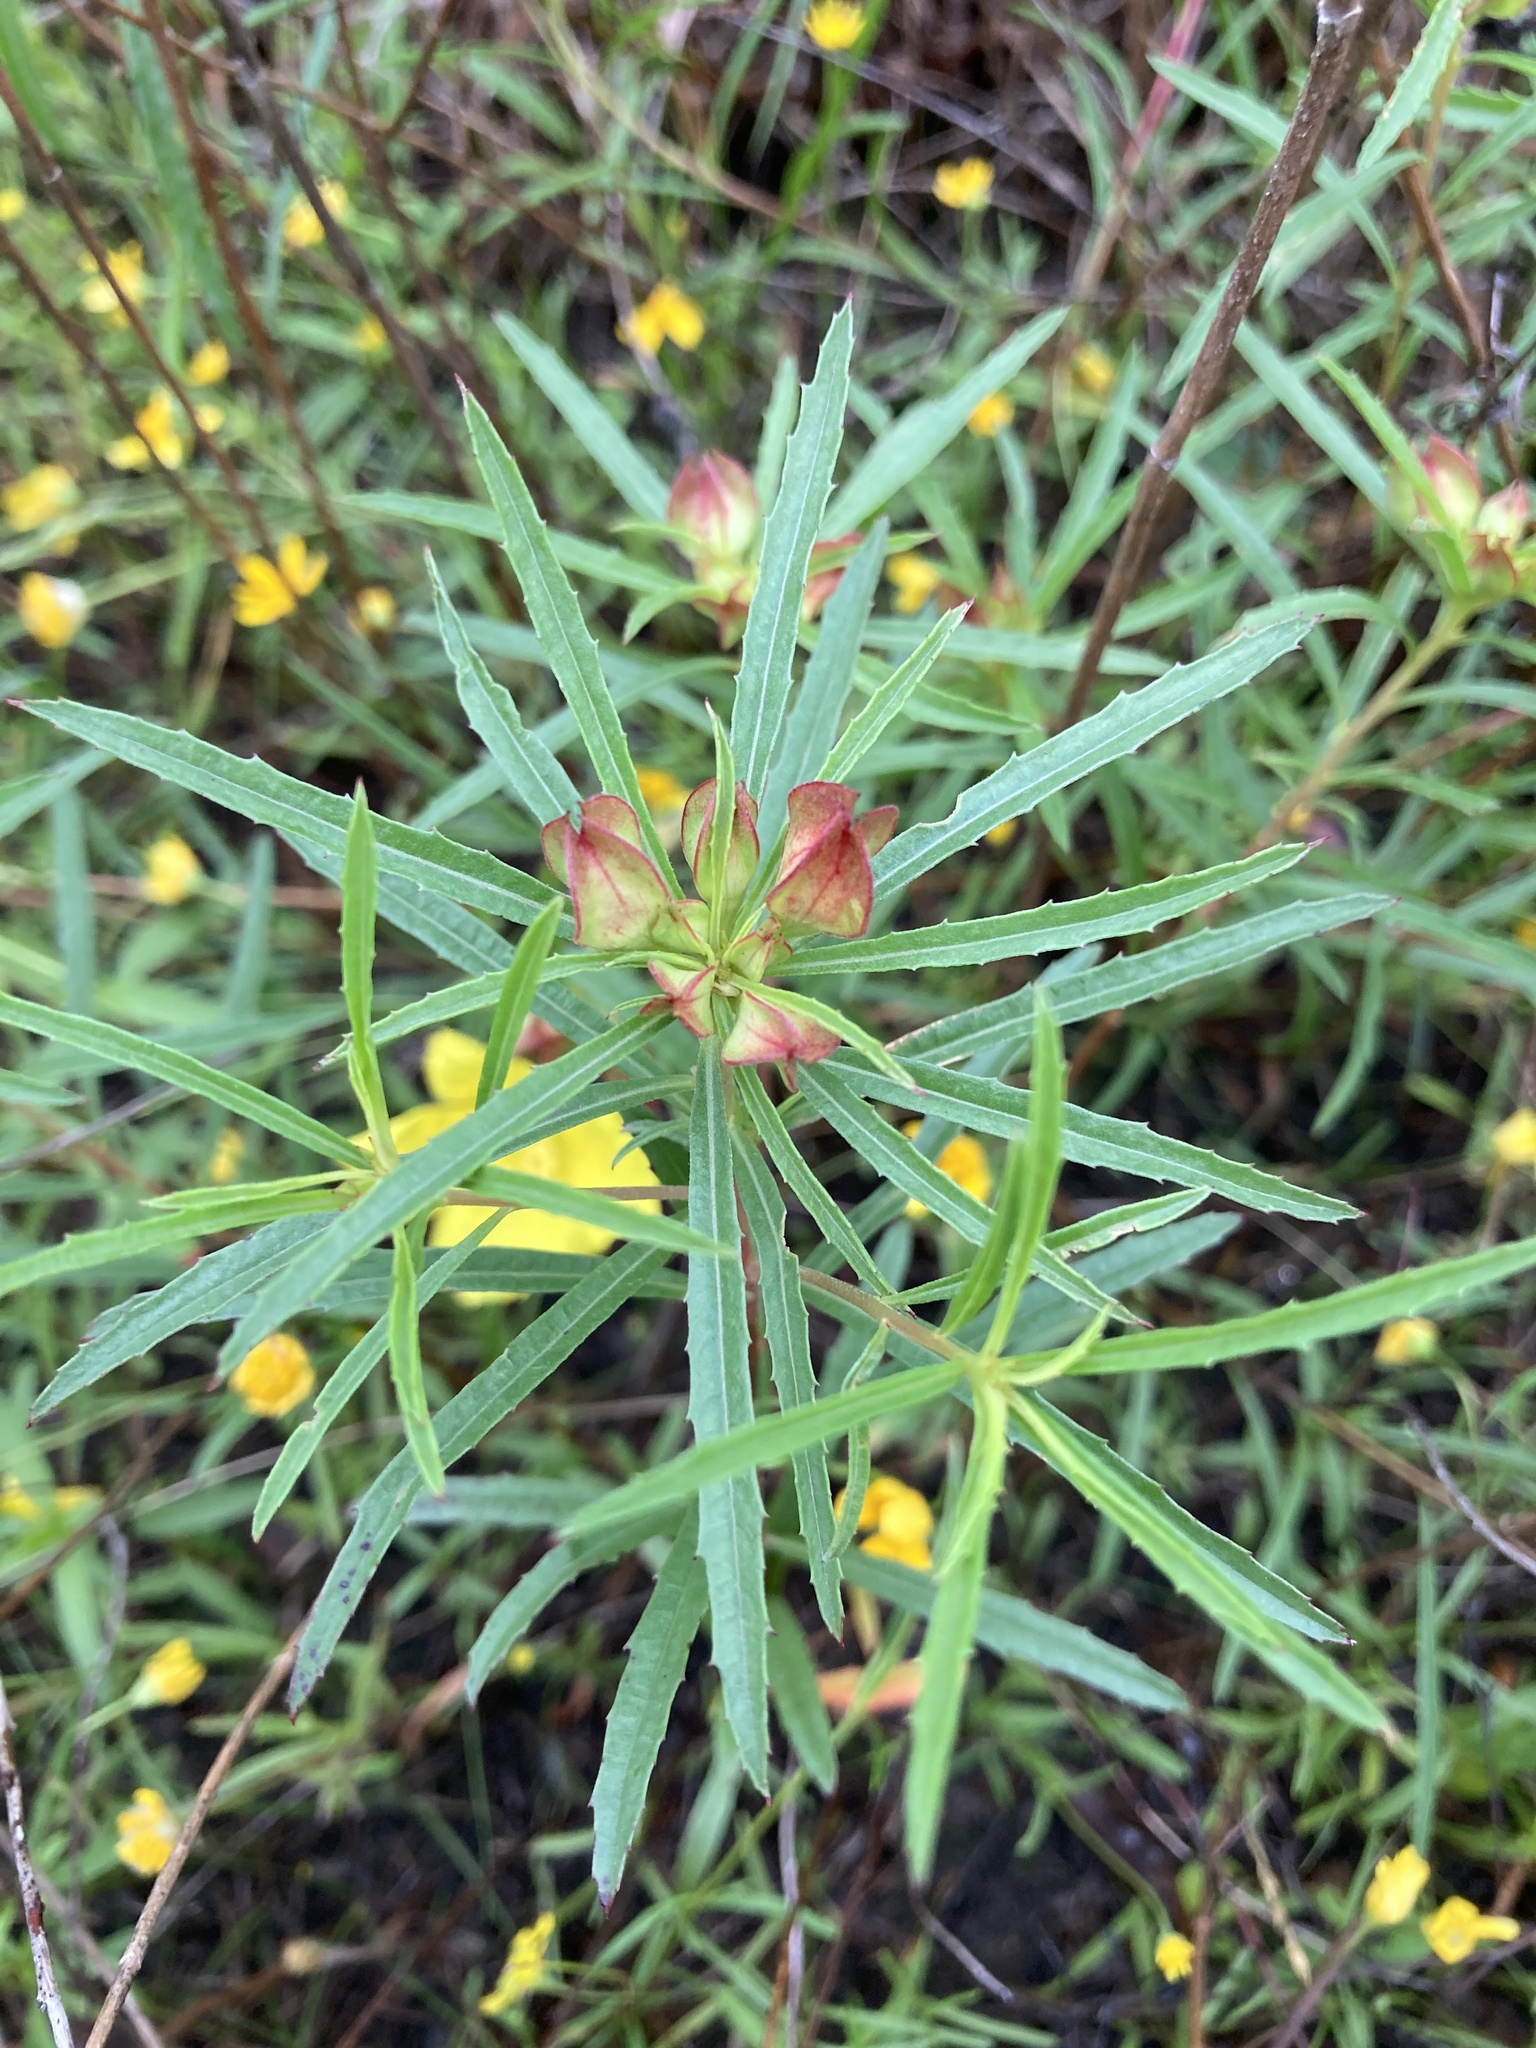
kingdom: Plantae
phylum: Tracheophyta
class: Magnoliopsida
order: Myrtales
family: Onagraceae
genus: Oenothera
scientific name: Oenothera
